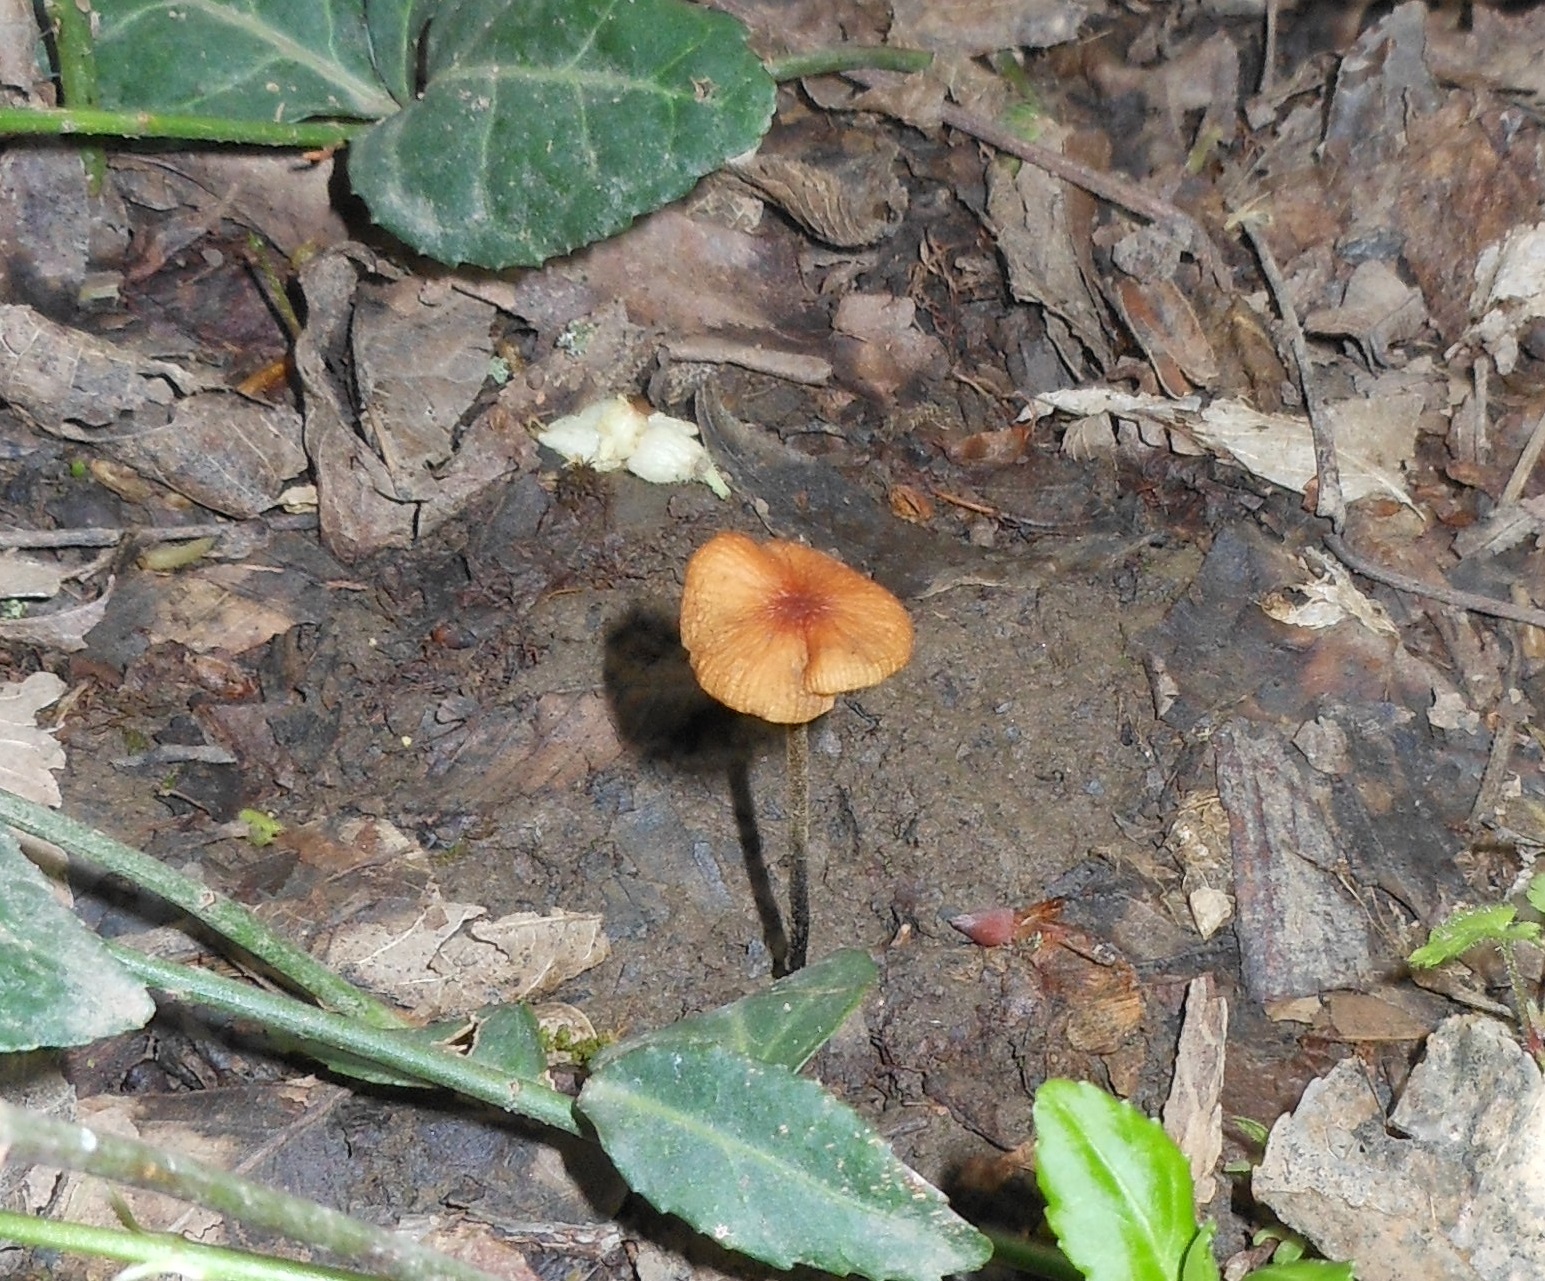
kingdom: Fungi
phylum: Basidiomycota
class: Agaricomycetes
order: Agaricales
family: Physalacriaceae
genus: Rhizomarasmius
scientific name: Rhizomarasmius pyrrhocephalus
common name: Hairy long stem marasmius
